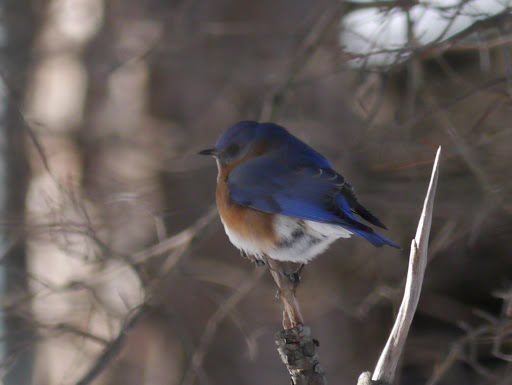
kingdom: Animalia
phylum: Chordata
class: Aves
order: Passeriformes
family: Turdidae
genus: Sialia
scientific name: Sialia sialis
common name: Eastern bluebird
